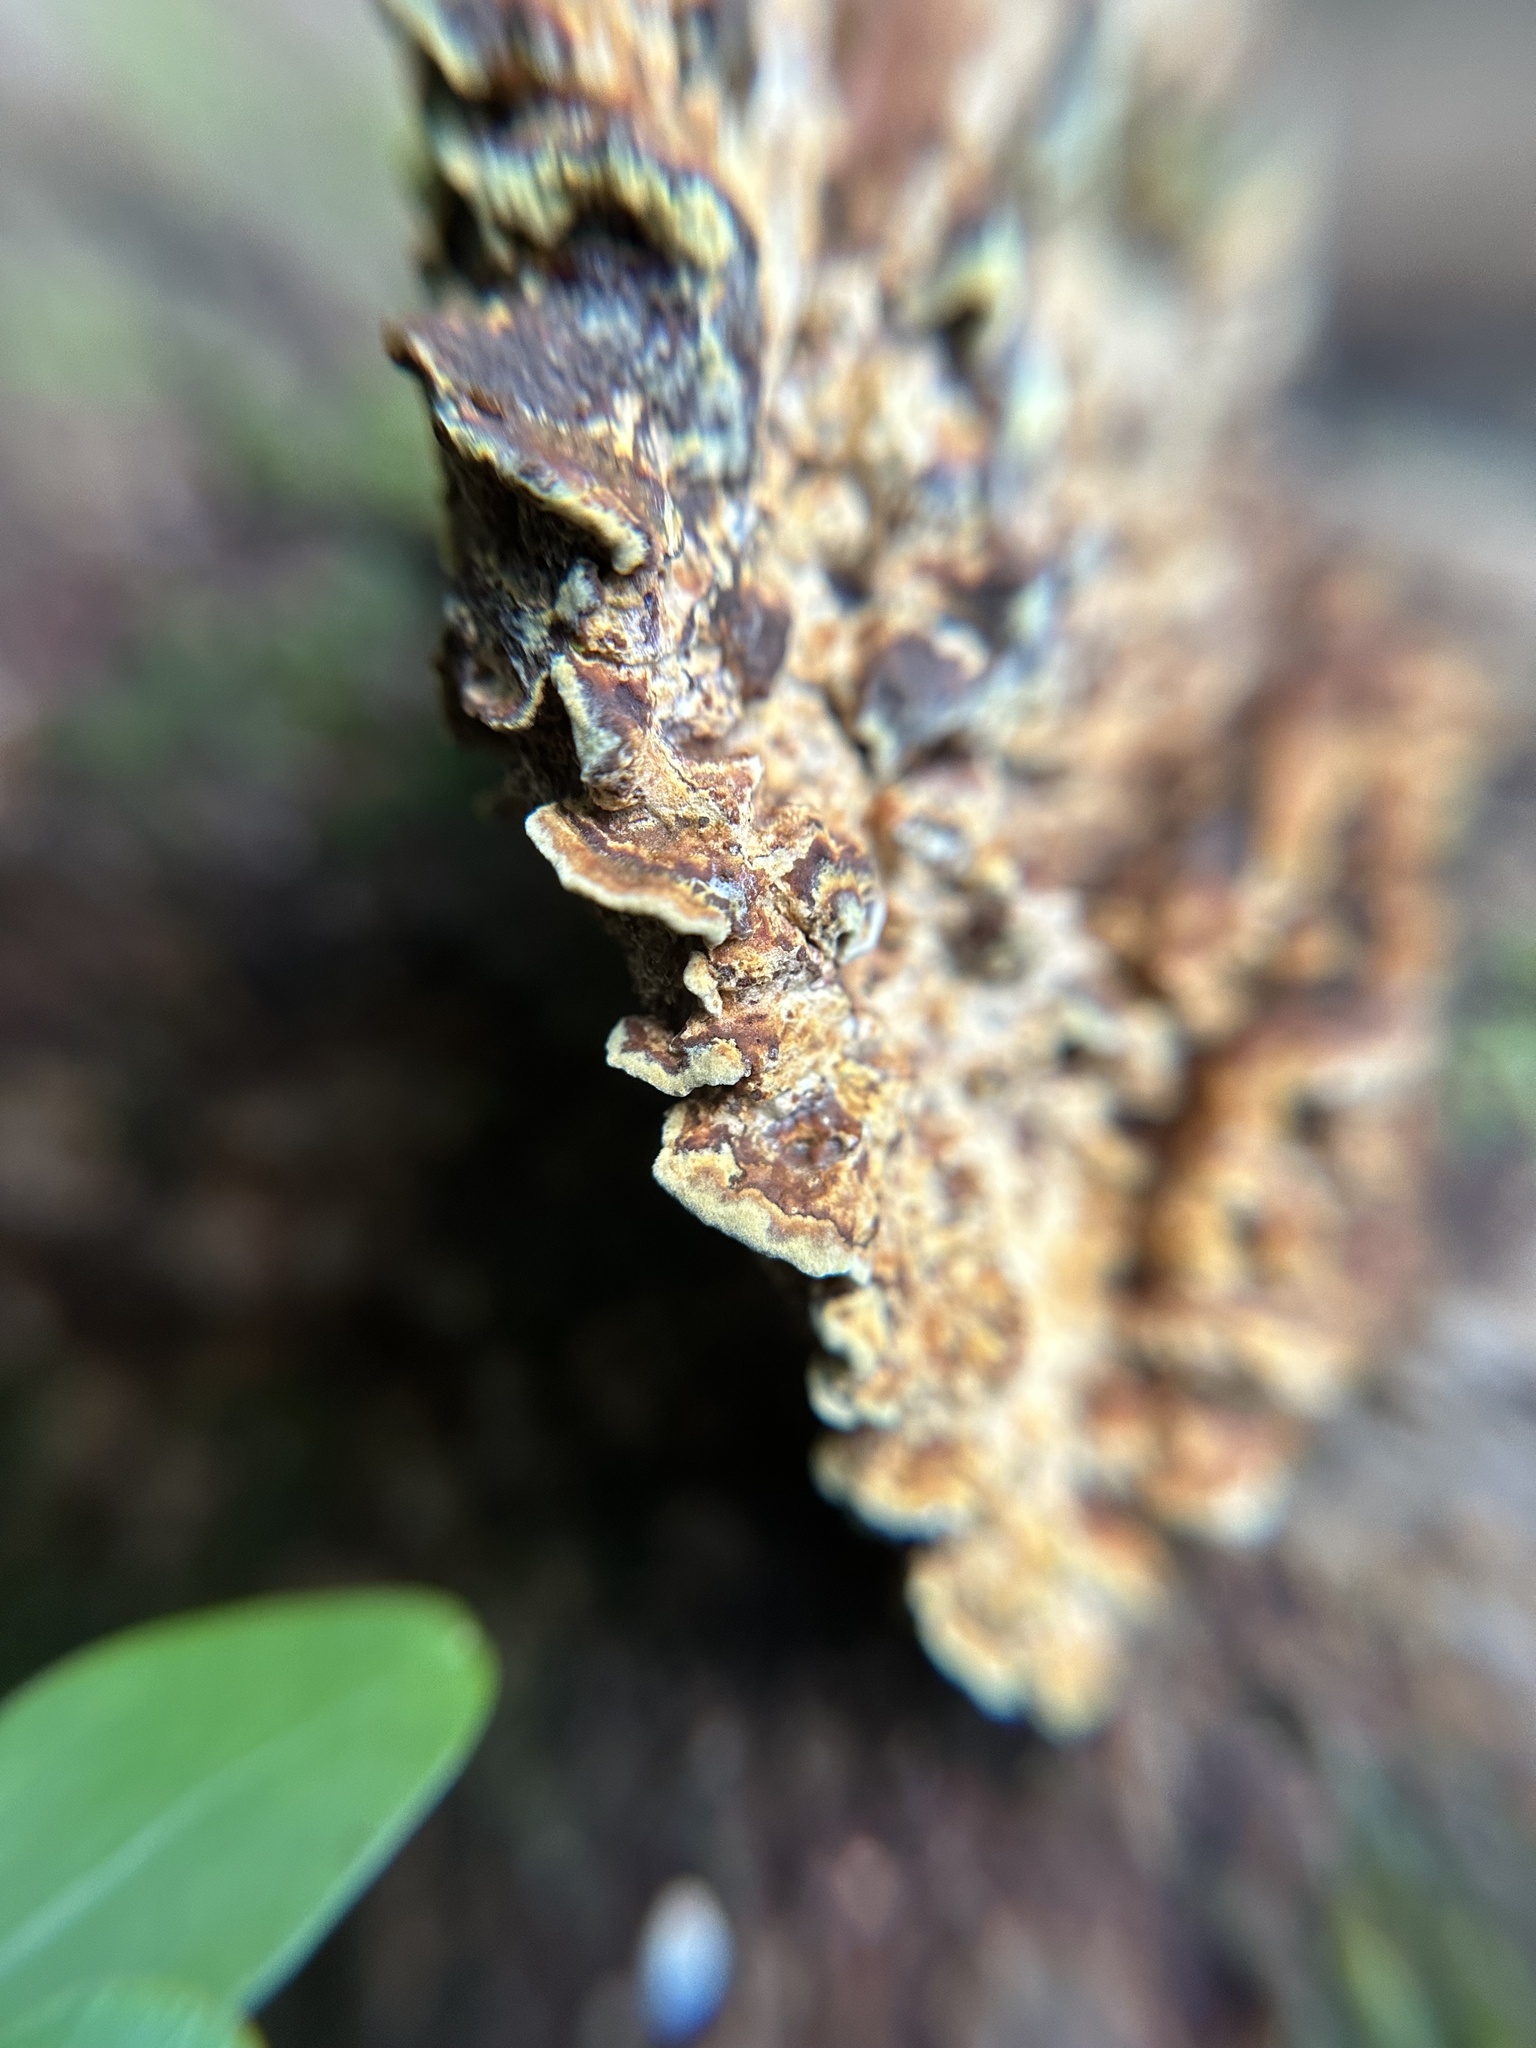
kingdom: Fungi
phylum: Basidiomycota
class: Agaricomycetes
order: Hymenochaetales
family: Hymenochaetaceae
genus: Phellinus
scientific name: Phellinus gilvus
